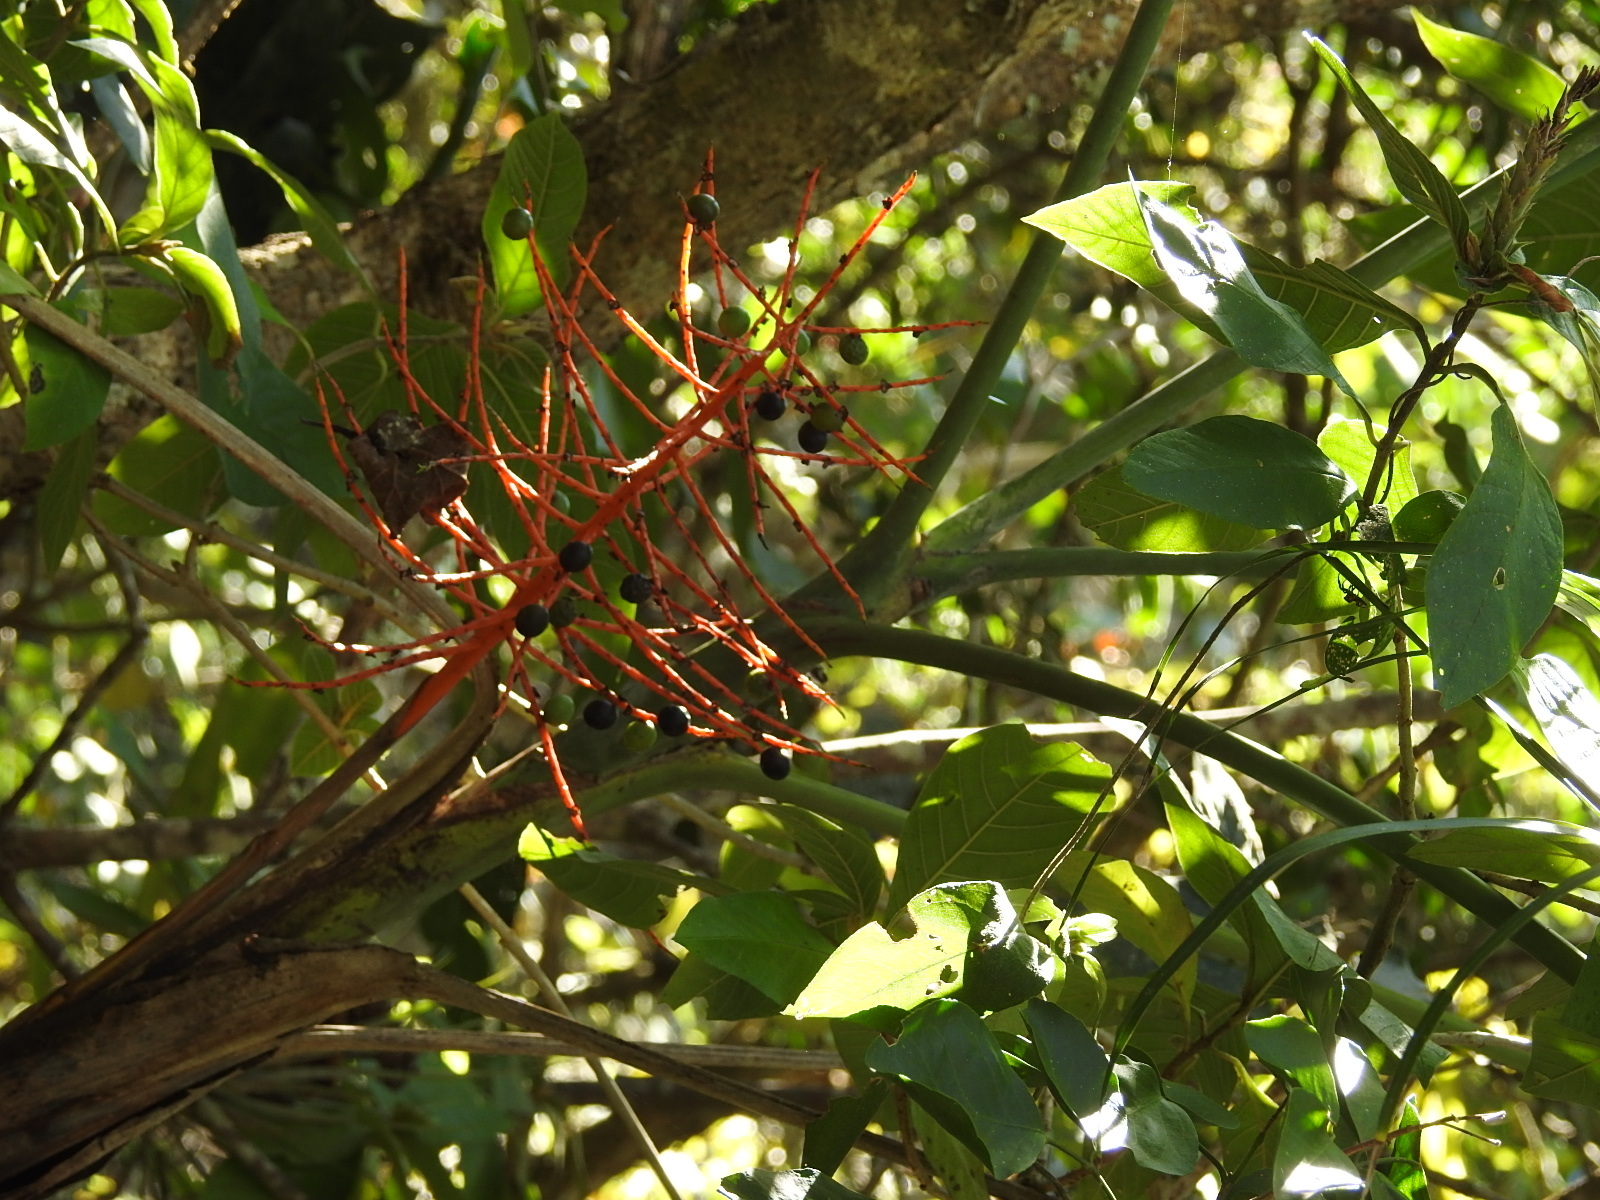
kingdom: Plantae
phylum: Tracheophyta
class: Liliopsida
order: Arecales
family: Arecaceae
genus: Chamaedorea
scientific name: Chamaedorea glaucifolia
